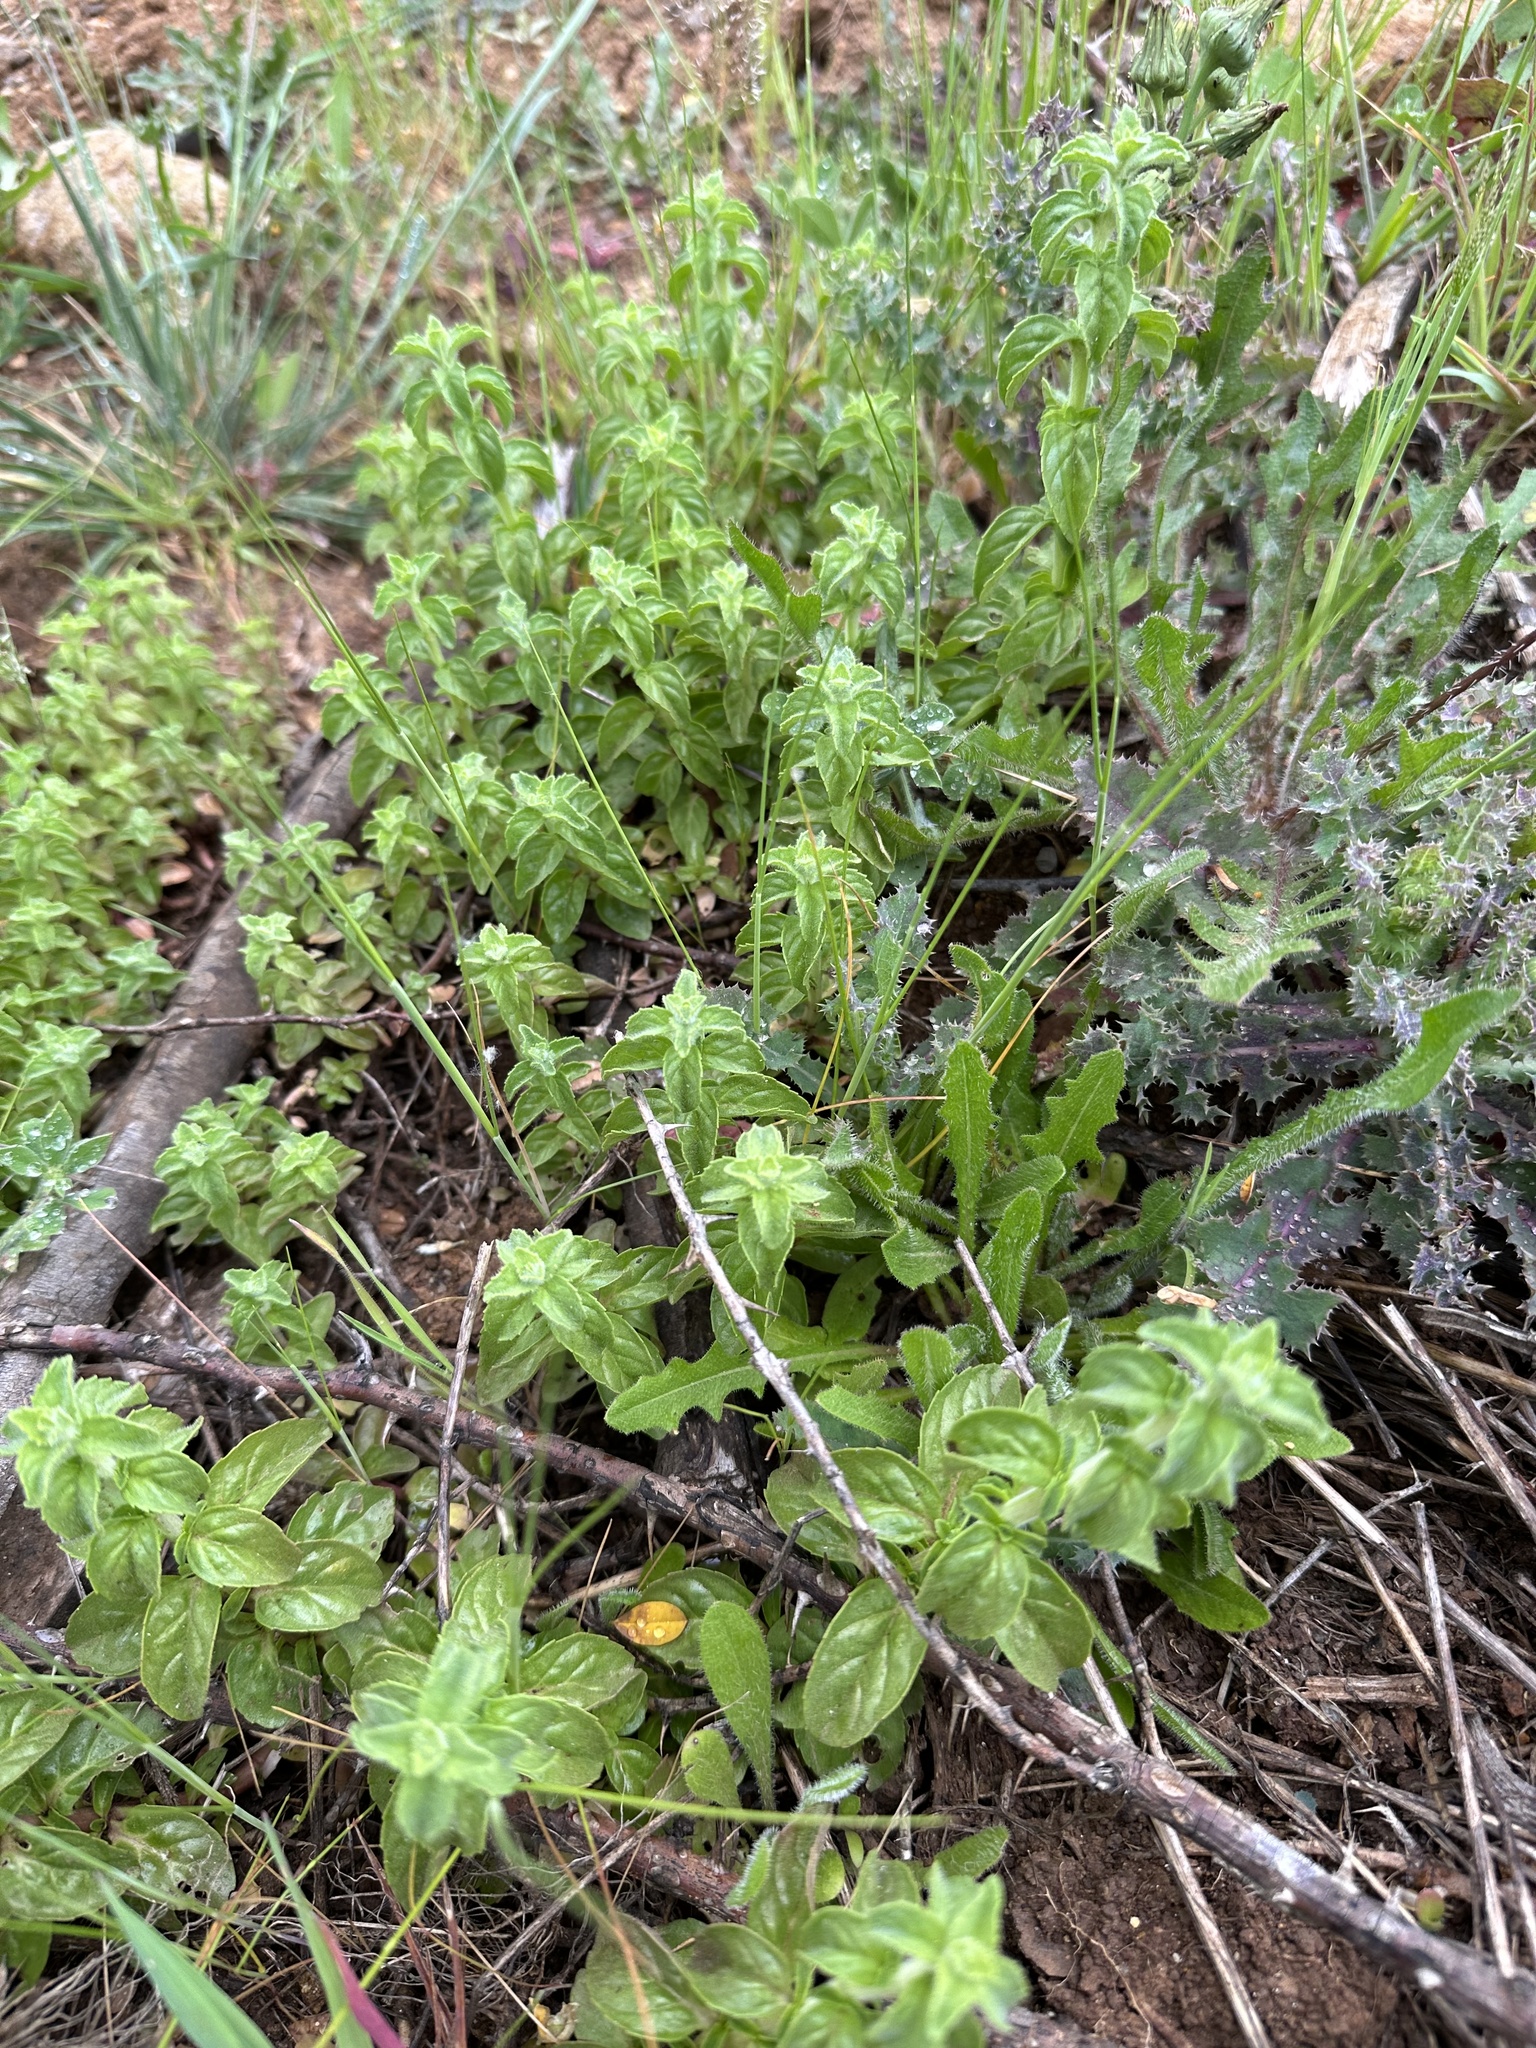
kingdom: Plantae
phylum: Tracheophyta
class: Magnoliopsida
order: Lamiales
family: Lamiaceae
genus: Mentha
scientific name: Mentha pulegium
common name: Pennyroyal
